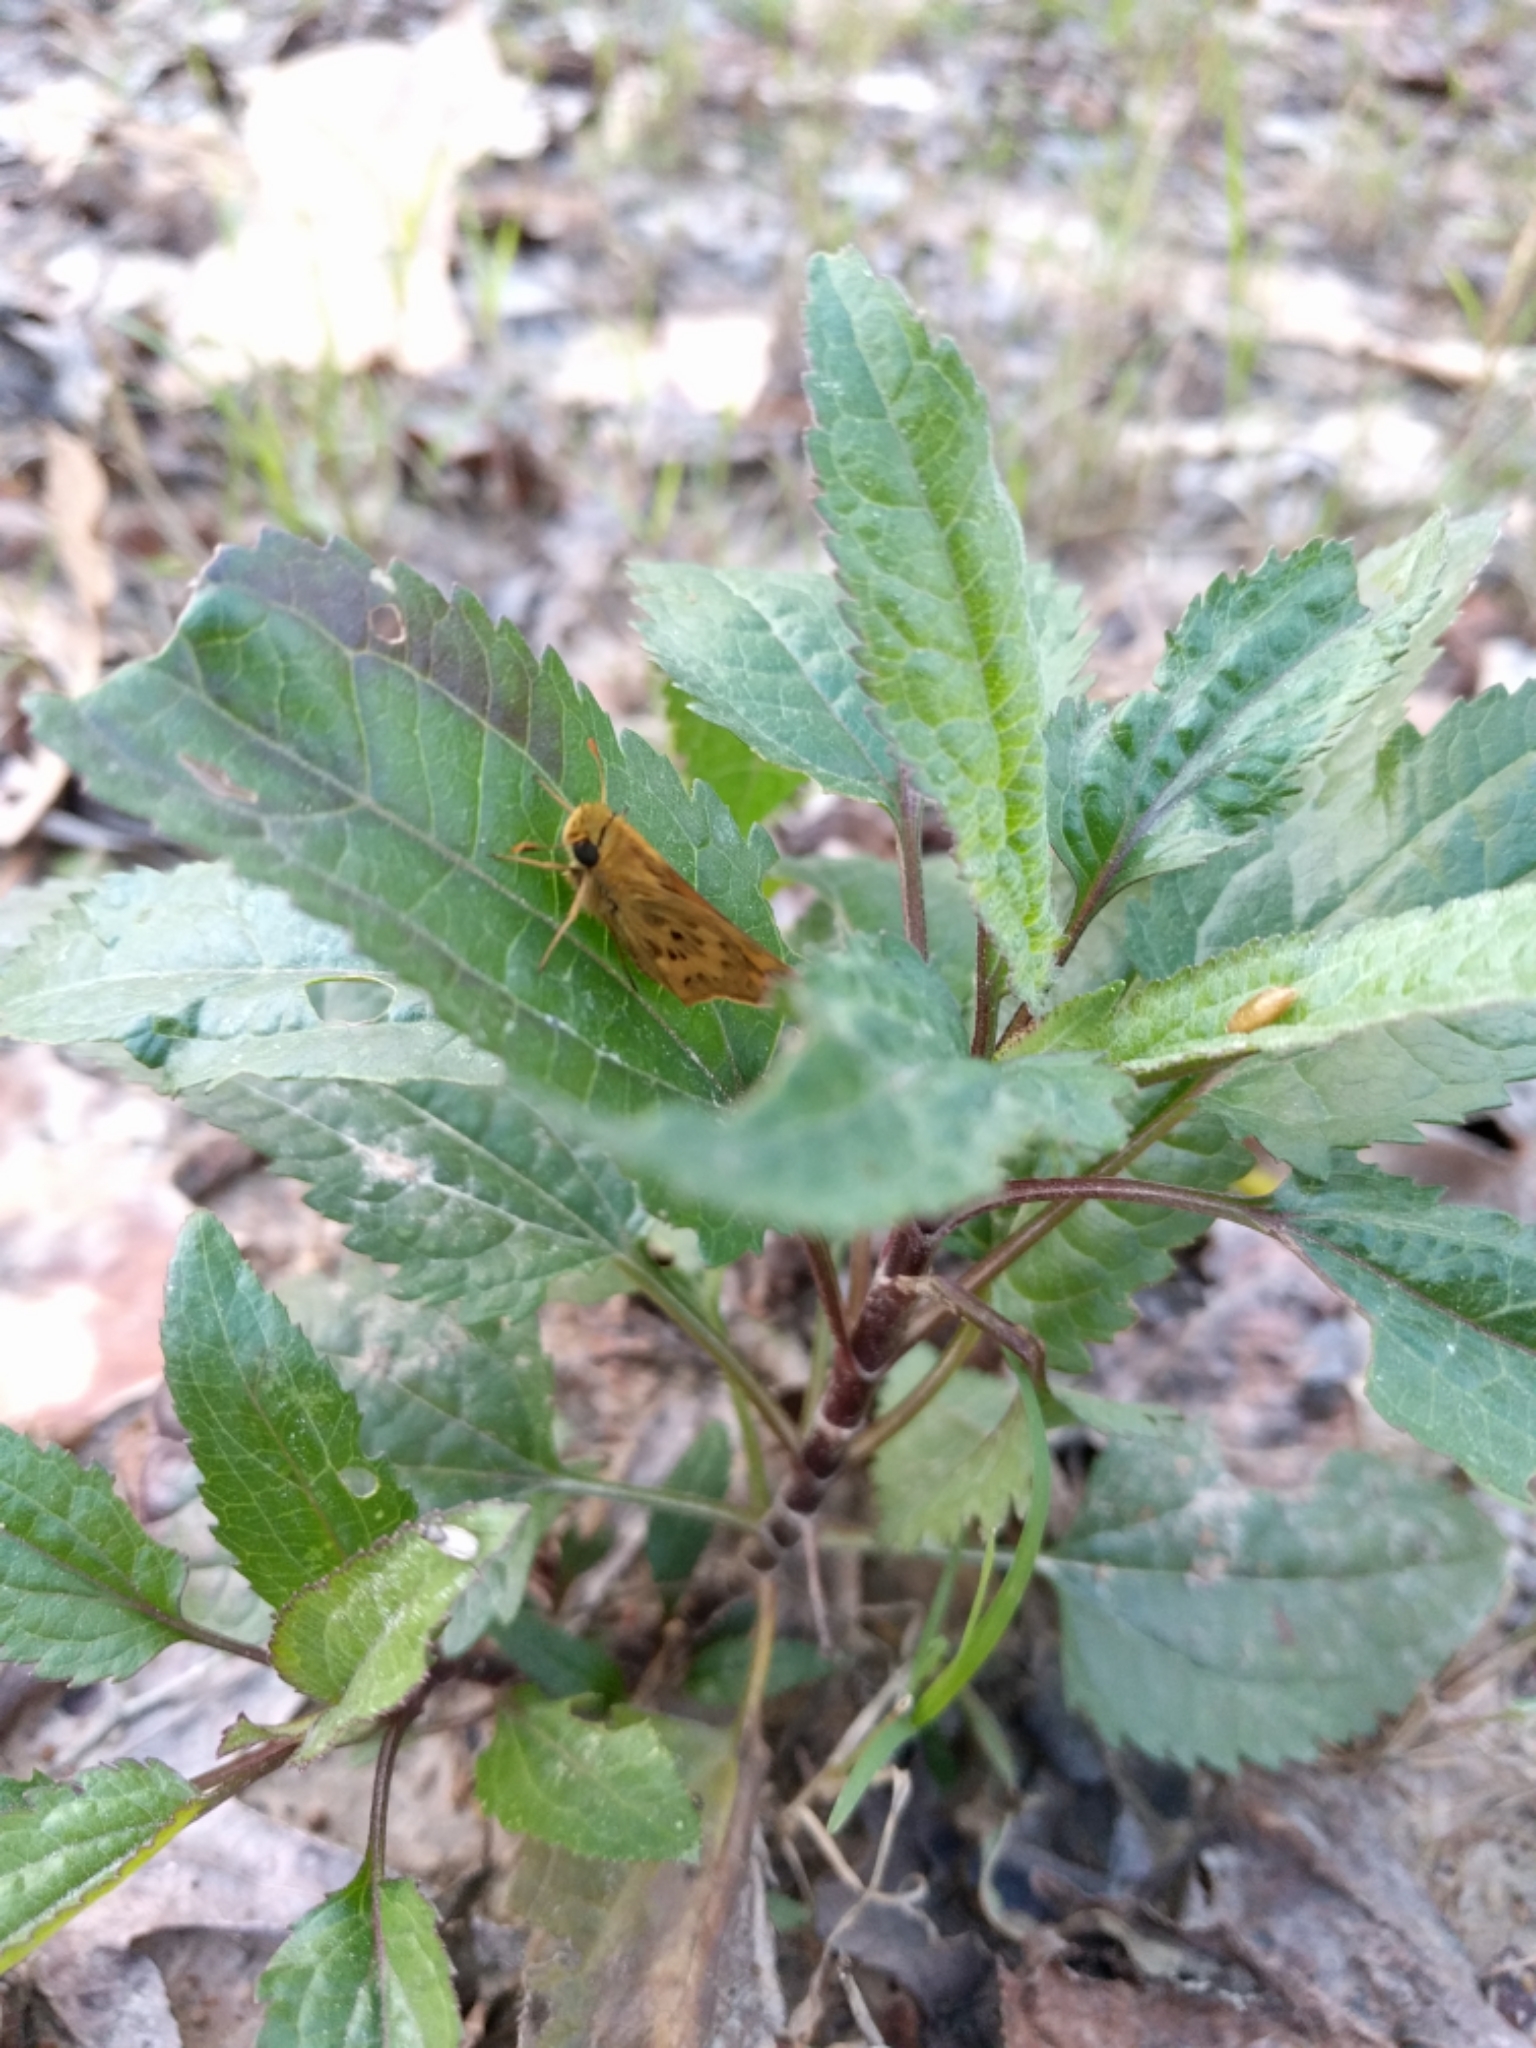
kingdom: Animalia
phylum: Arthropoda
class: Insecta
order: Lepidoptera
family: Hesperiidae
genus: Hylephila
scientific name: Hylephila phyleus
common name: Fiery skipper
